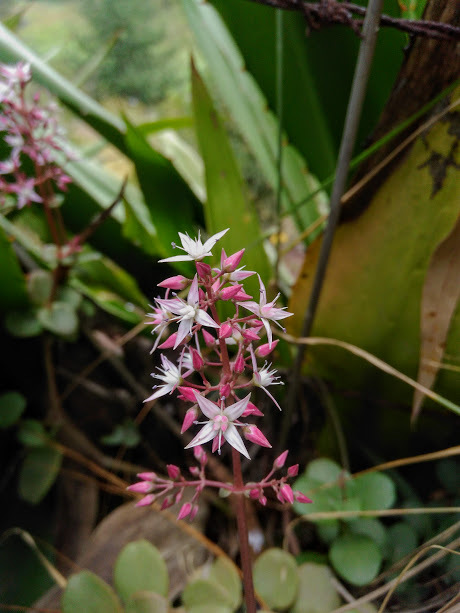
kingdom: Plantae
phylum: Tracheophyta
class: Magnoliopsida
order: Saxifragales
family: Crassulaceae
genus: Crassula
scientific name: Crassula multicava
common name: Cape province pygmyweed
